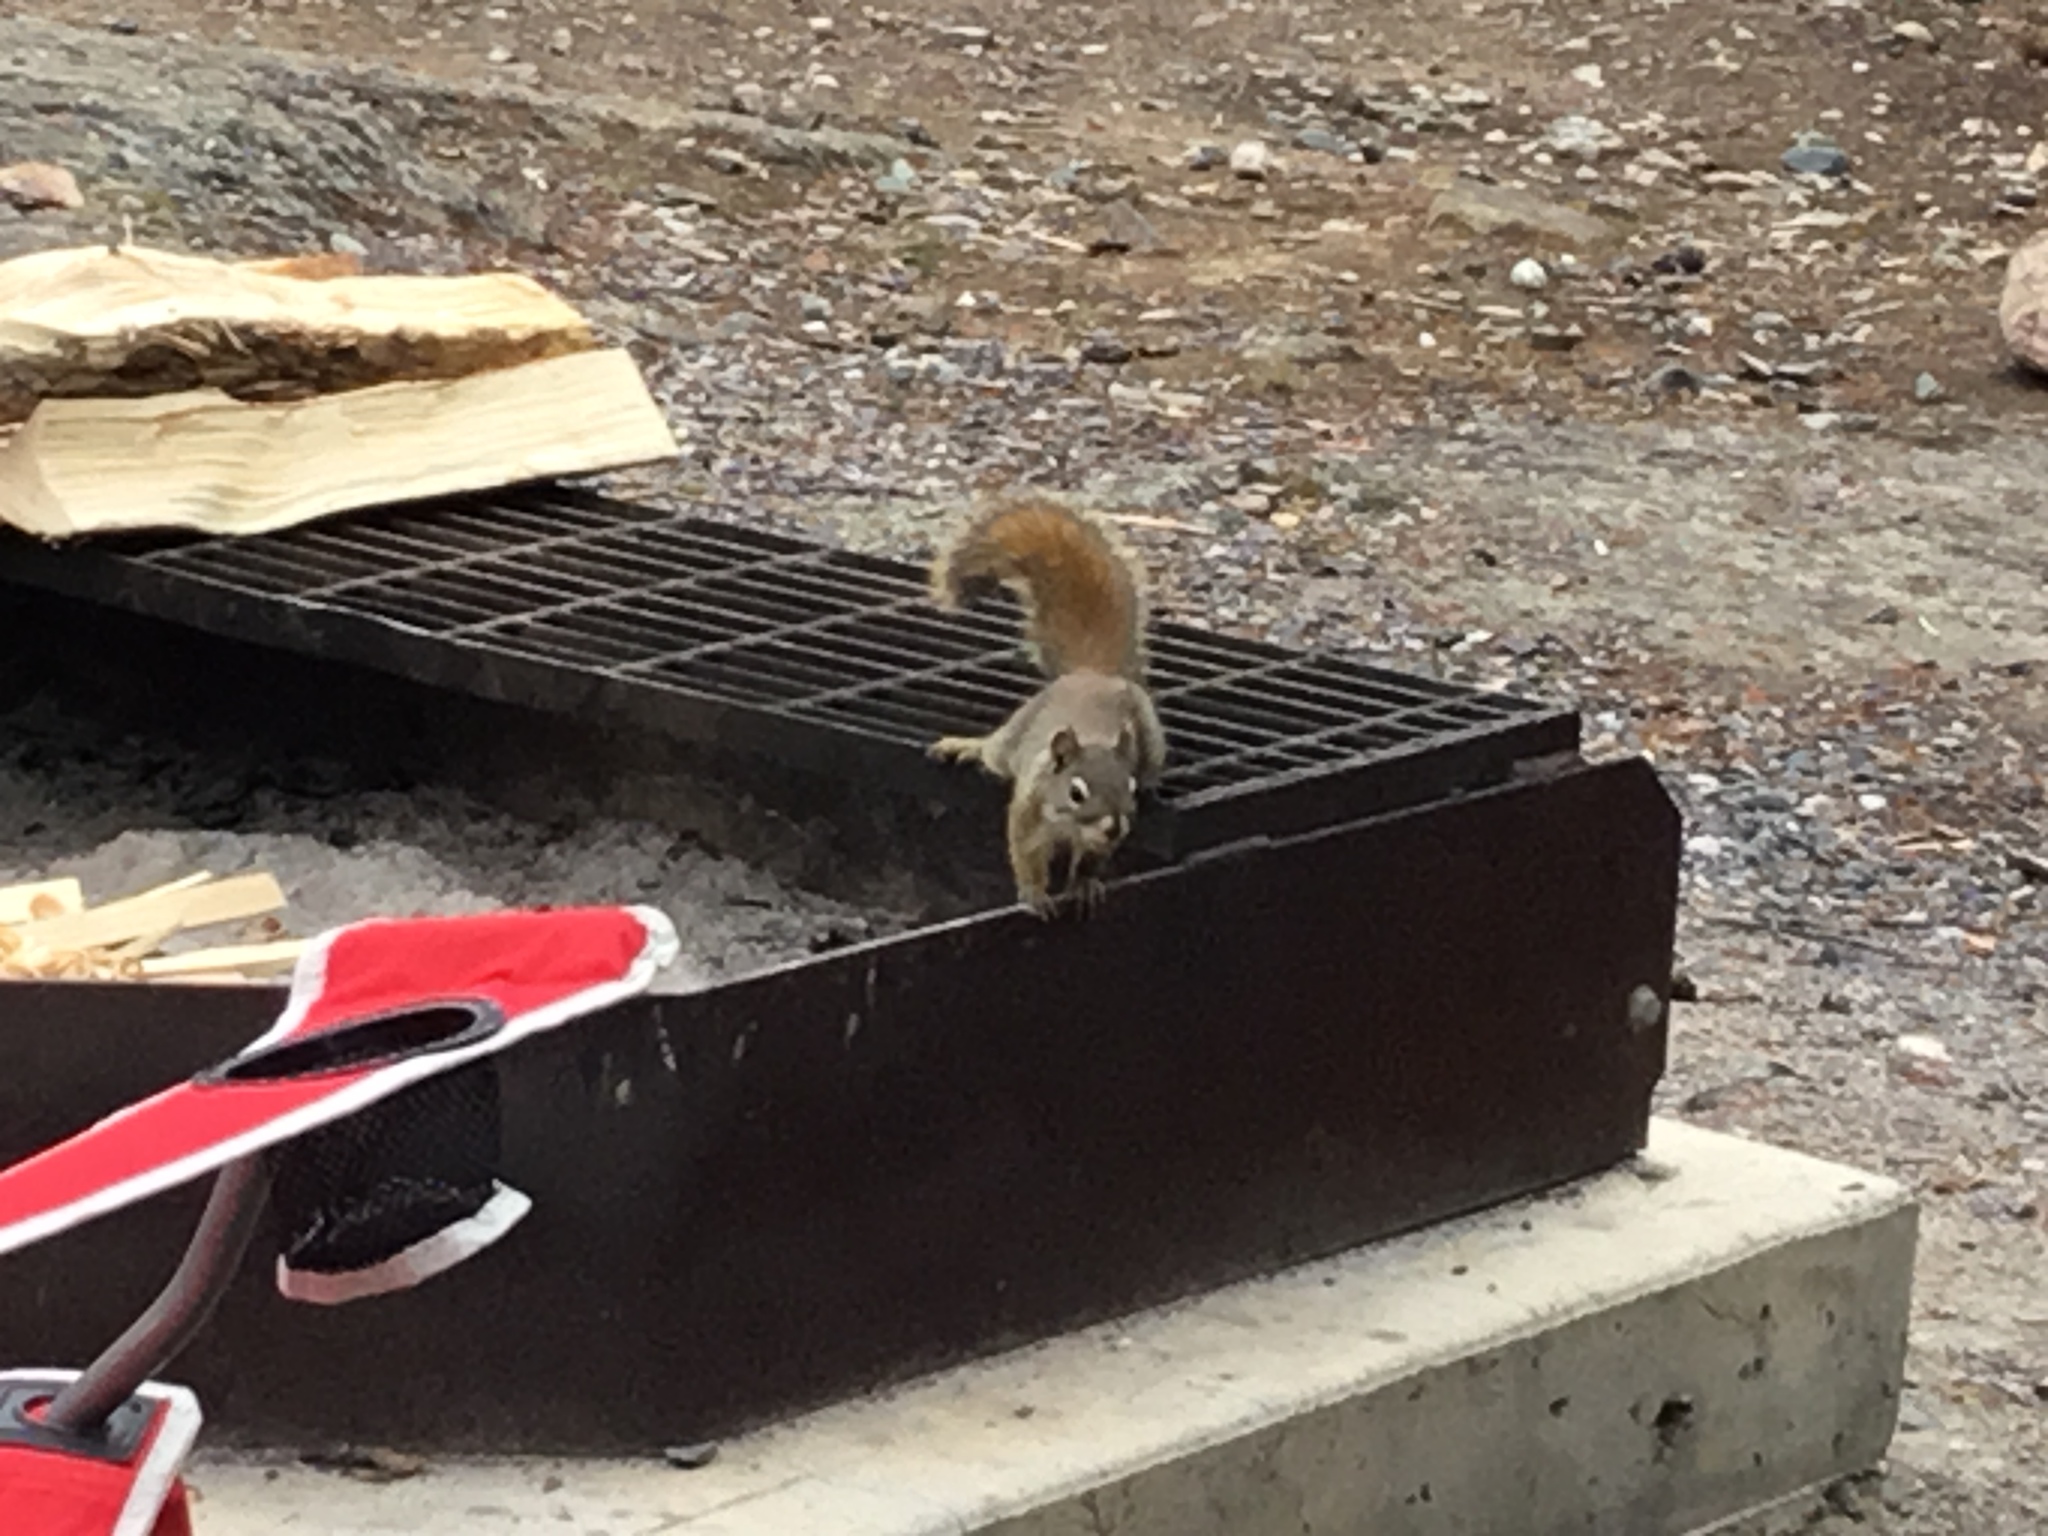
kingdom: Animalia
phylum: Chordata
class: Mammalia
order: Rodentia
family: Sciuridae
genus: Tamiasciurus
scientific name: Tamiasciurus hudsonicus
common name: Red squirrel
